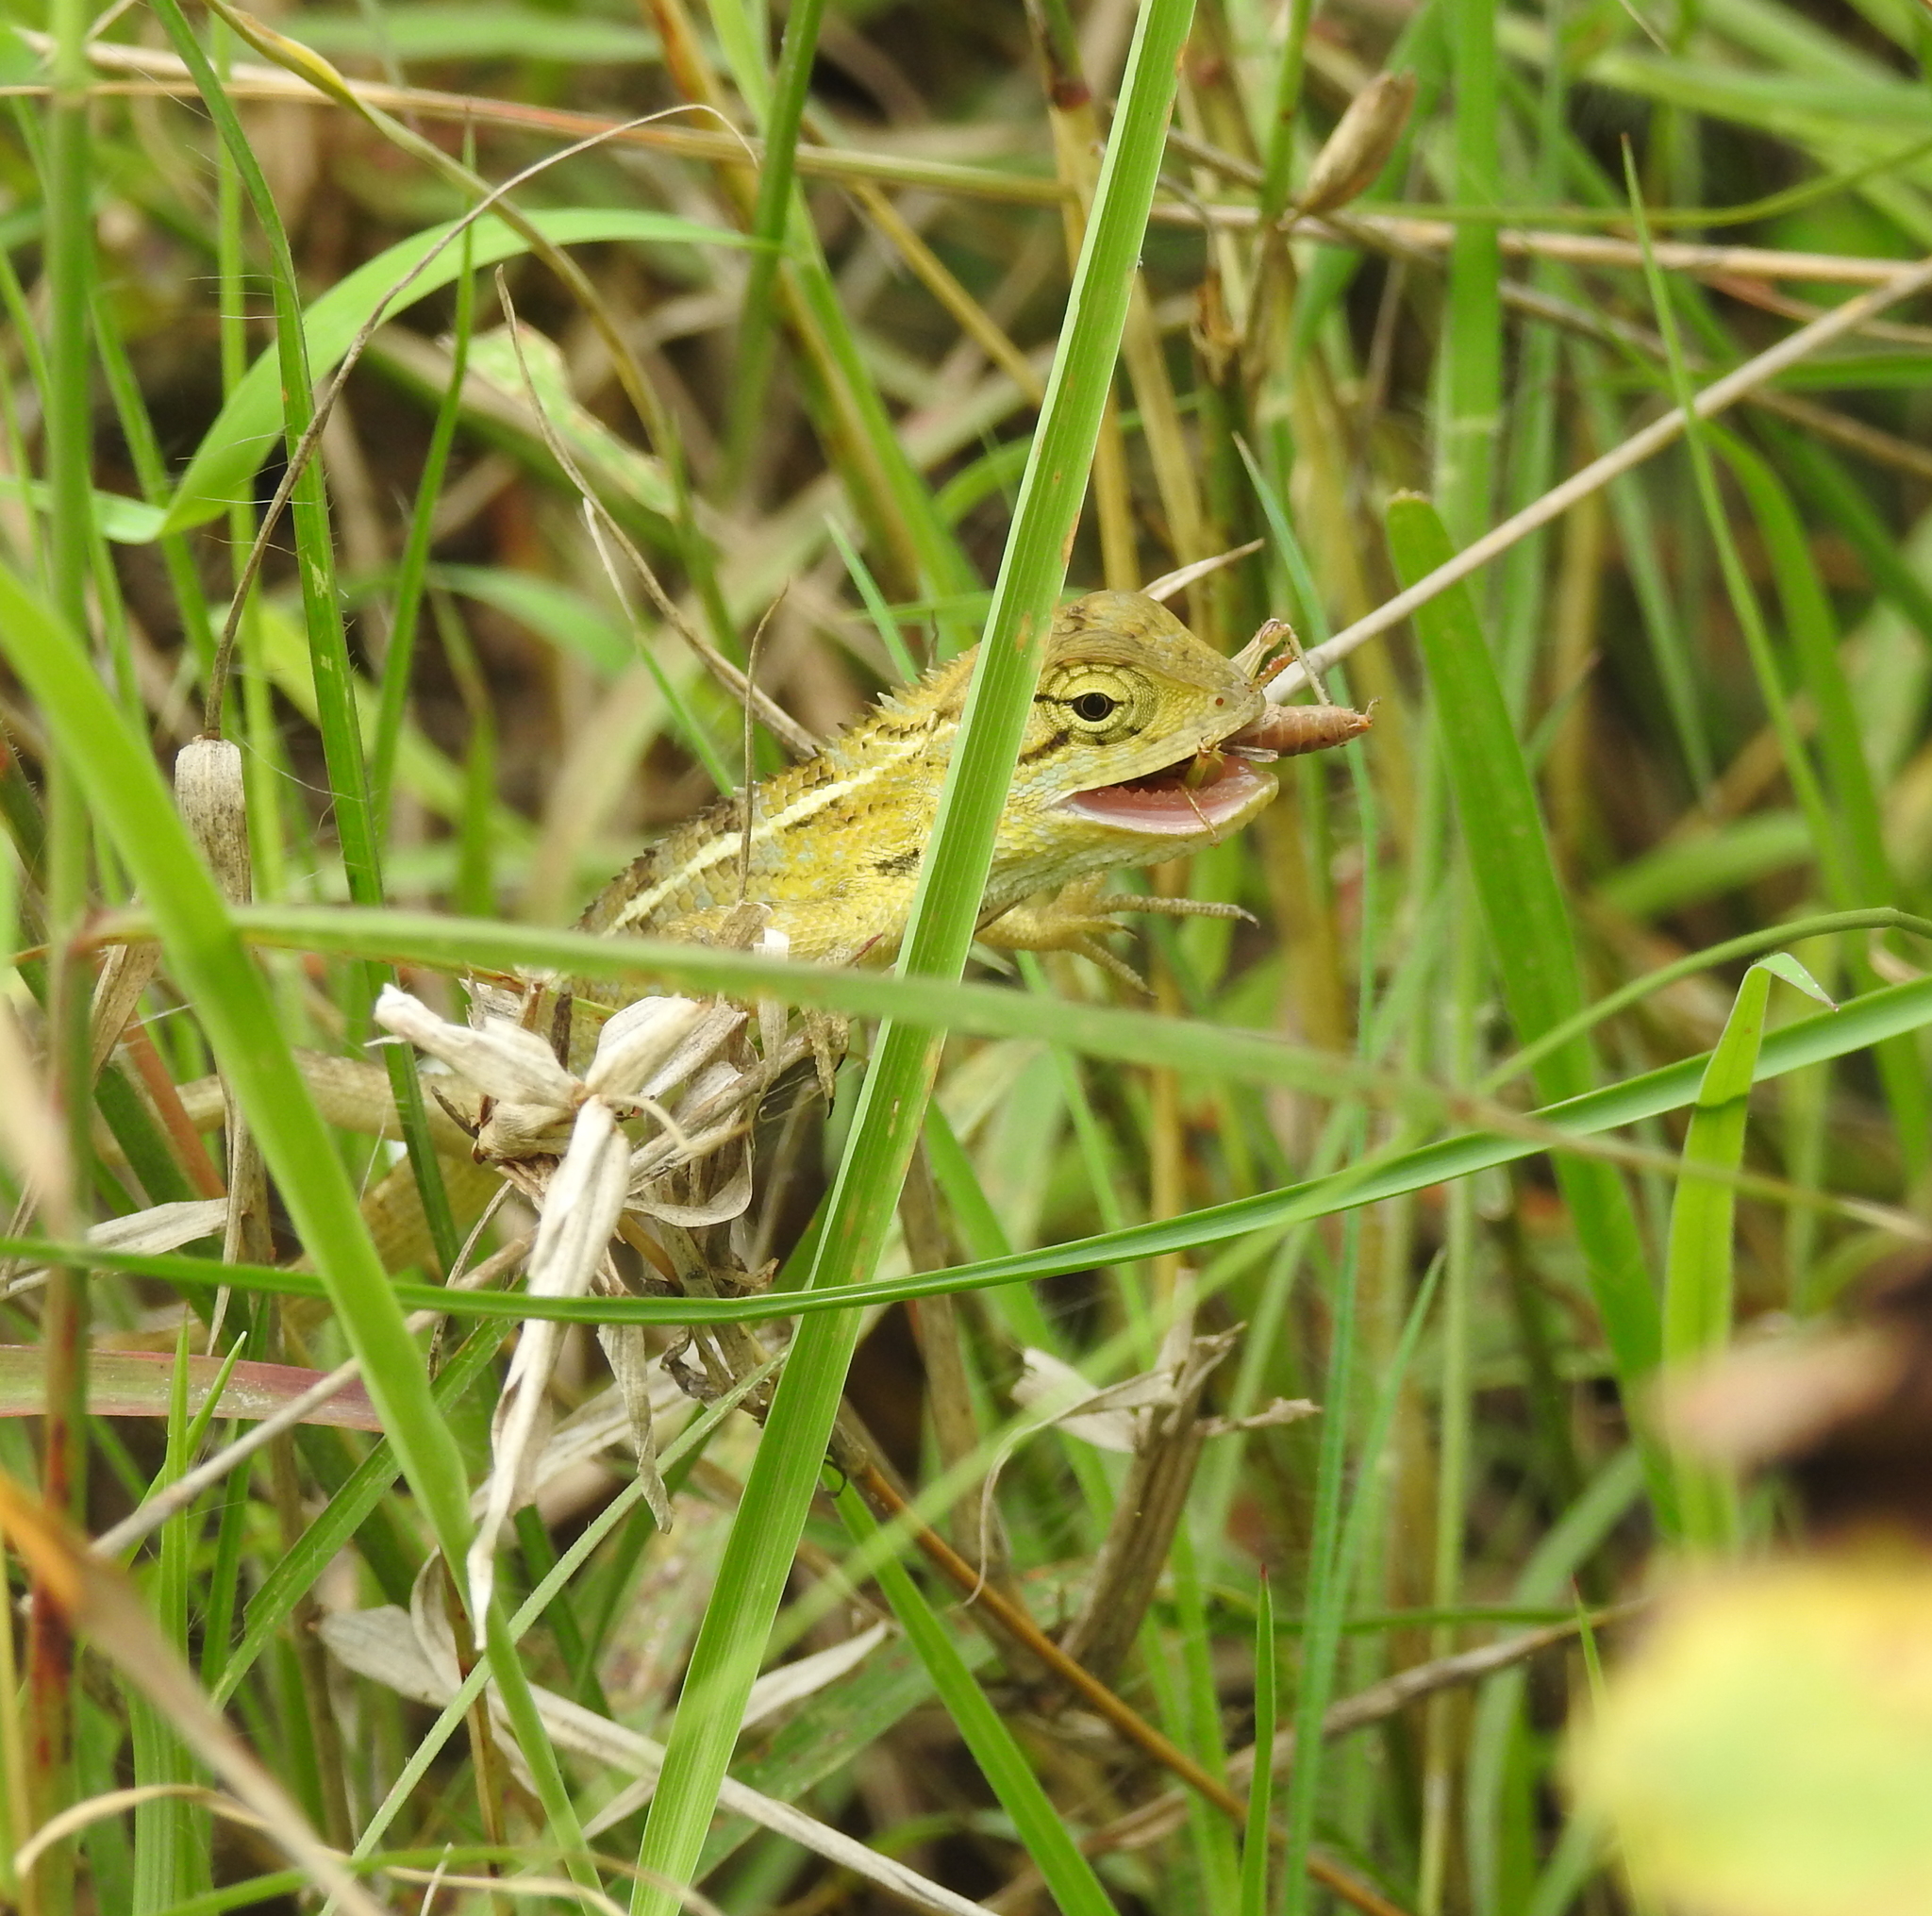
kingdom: Animalia
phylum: Chordata
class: Squamata
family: Agamidae
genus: Calotes
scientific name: Calotes versicolor
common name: Oriental garden lizard
